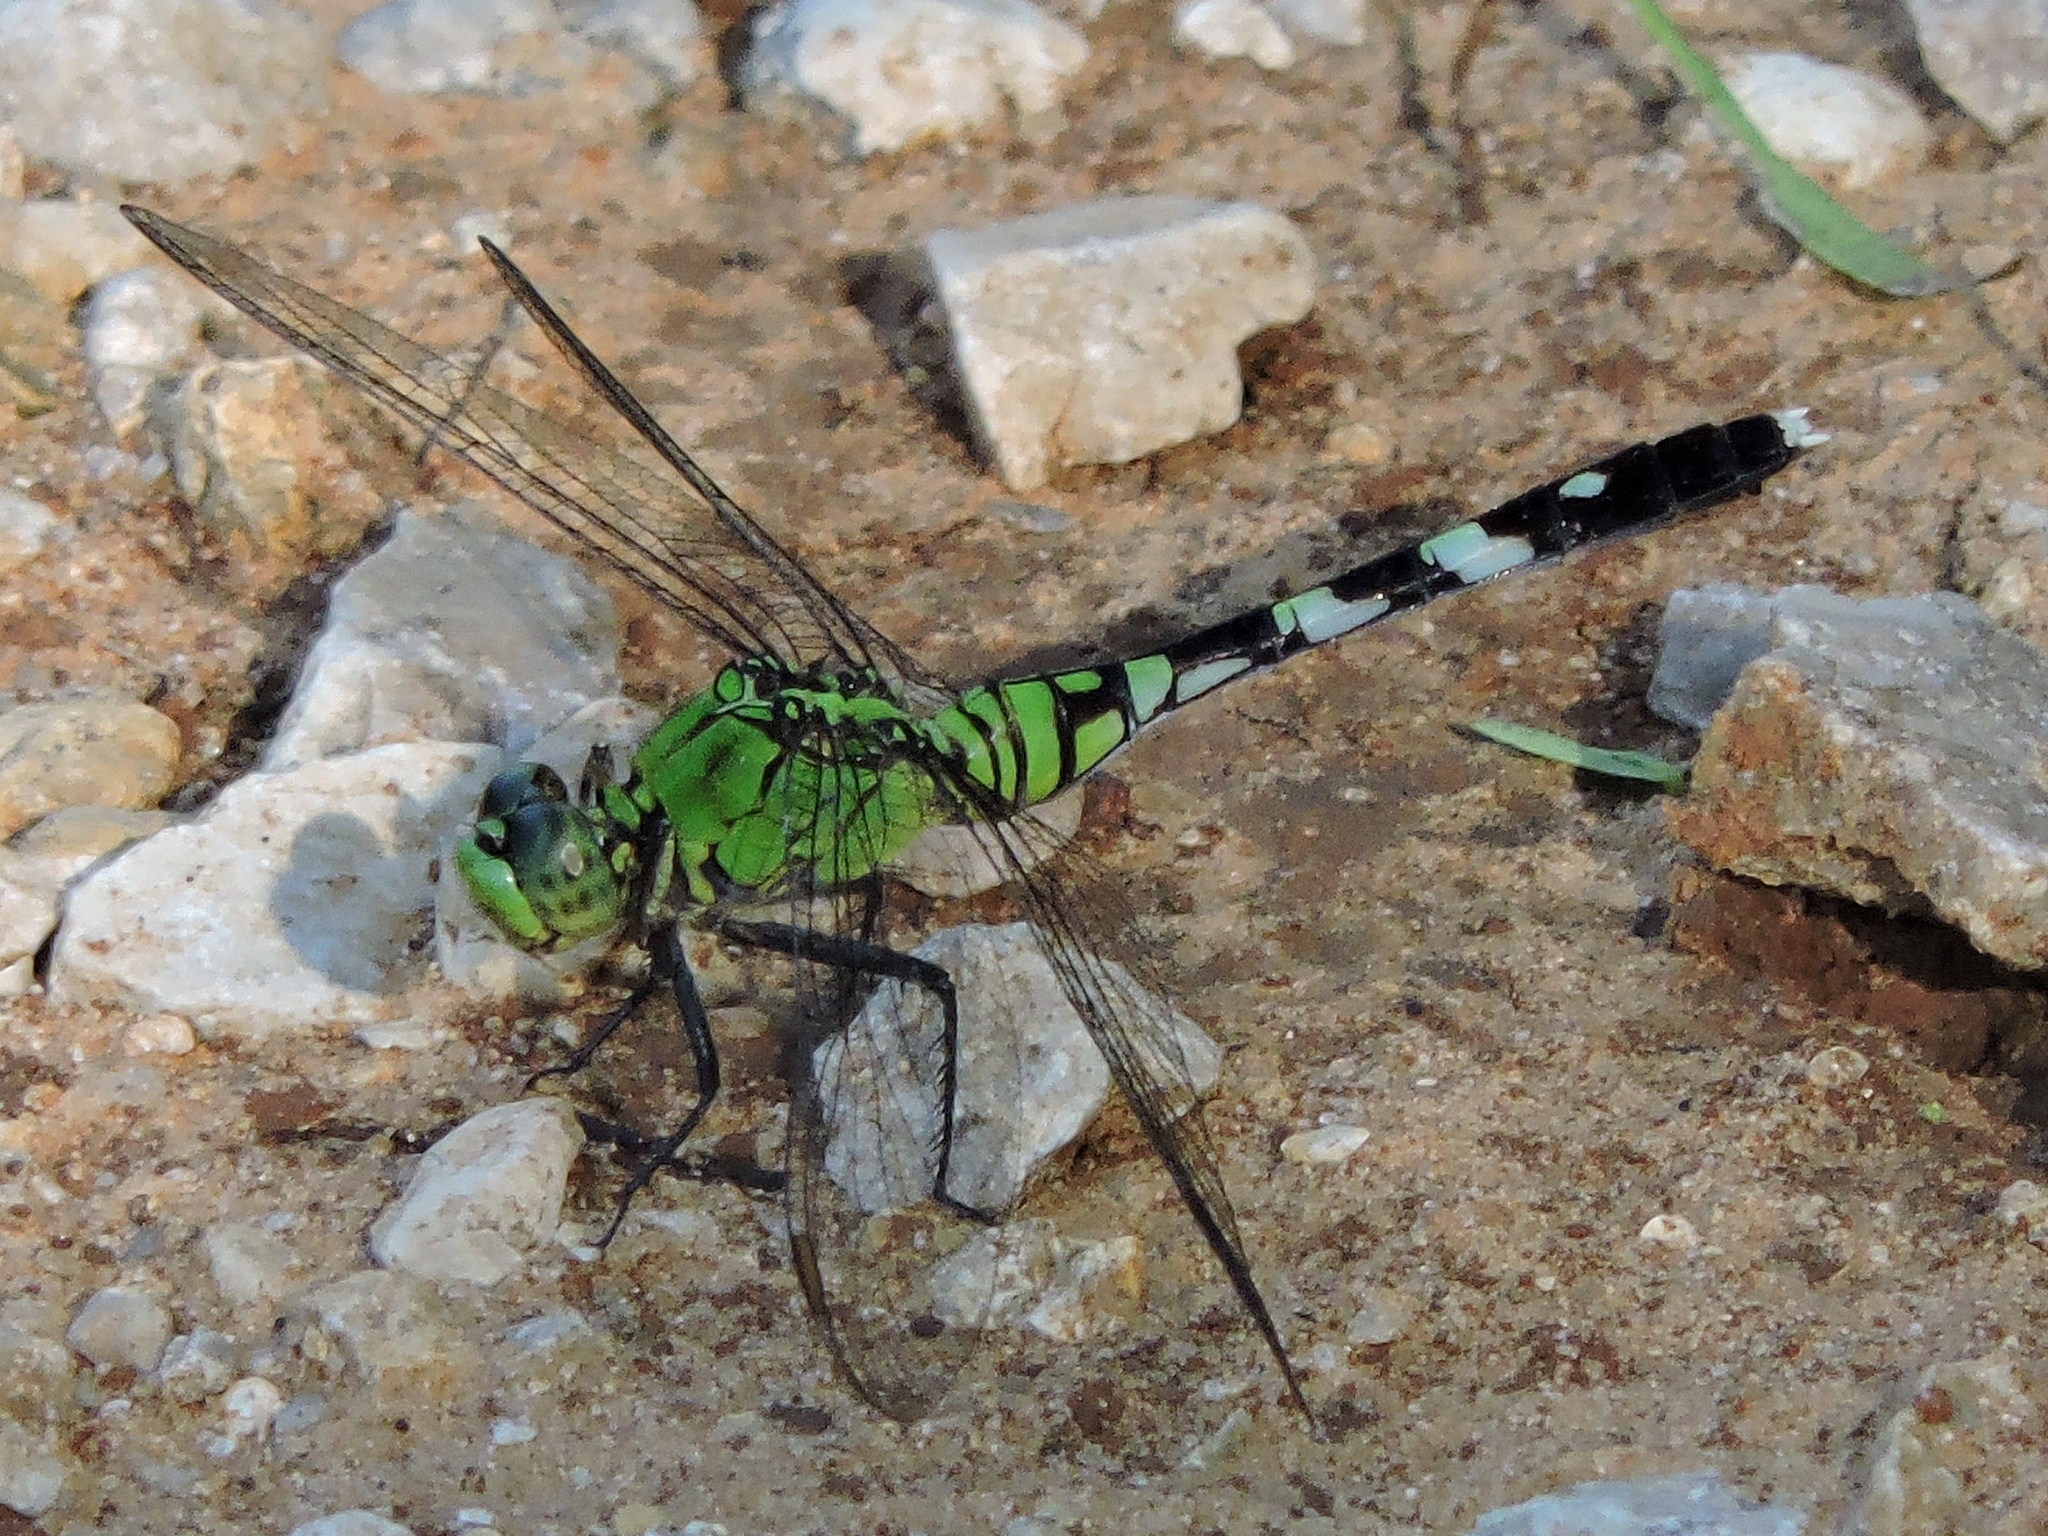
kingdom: Animalia
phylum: Arthropoda
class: Insecta
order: Odonata
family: Libellulidae
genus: Erythemis
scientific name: Erythemis simplicicollis
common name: Eastern pondhawk
